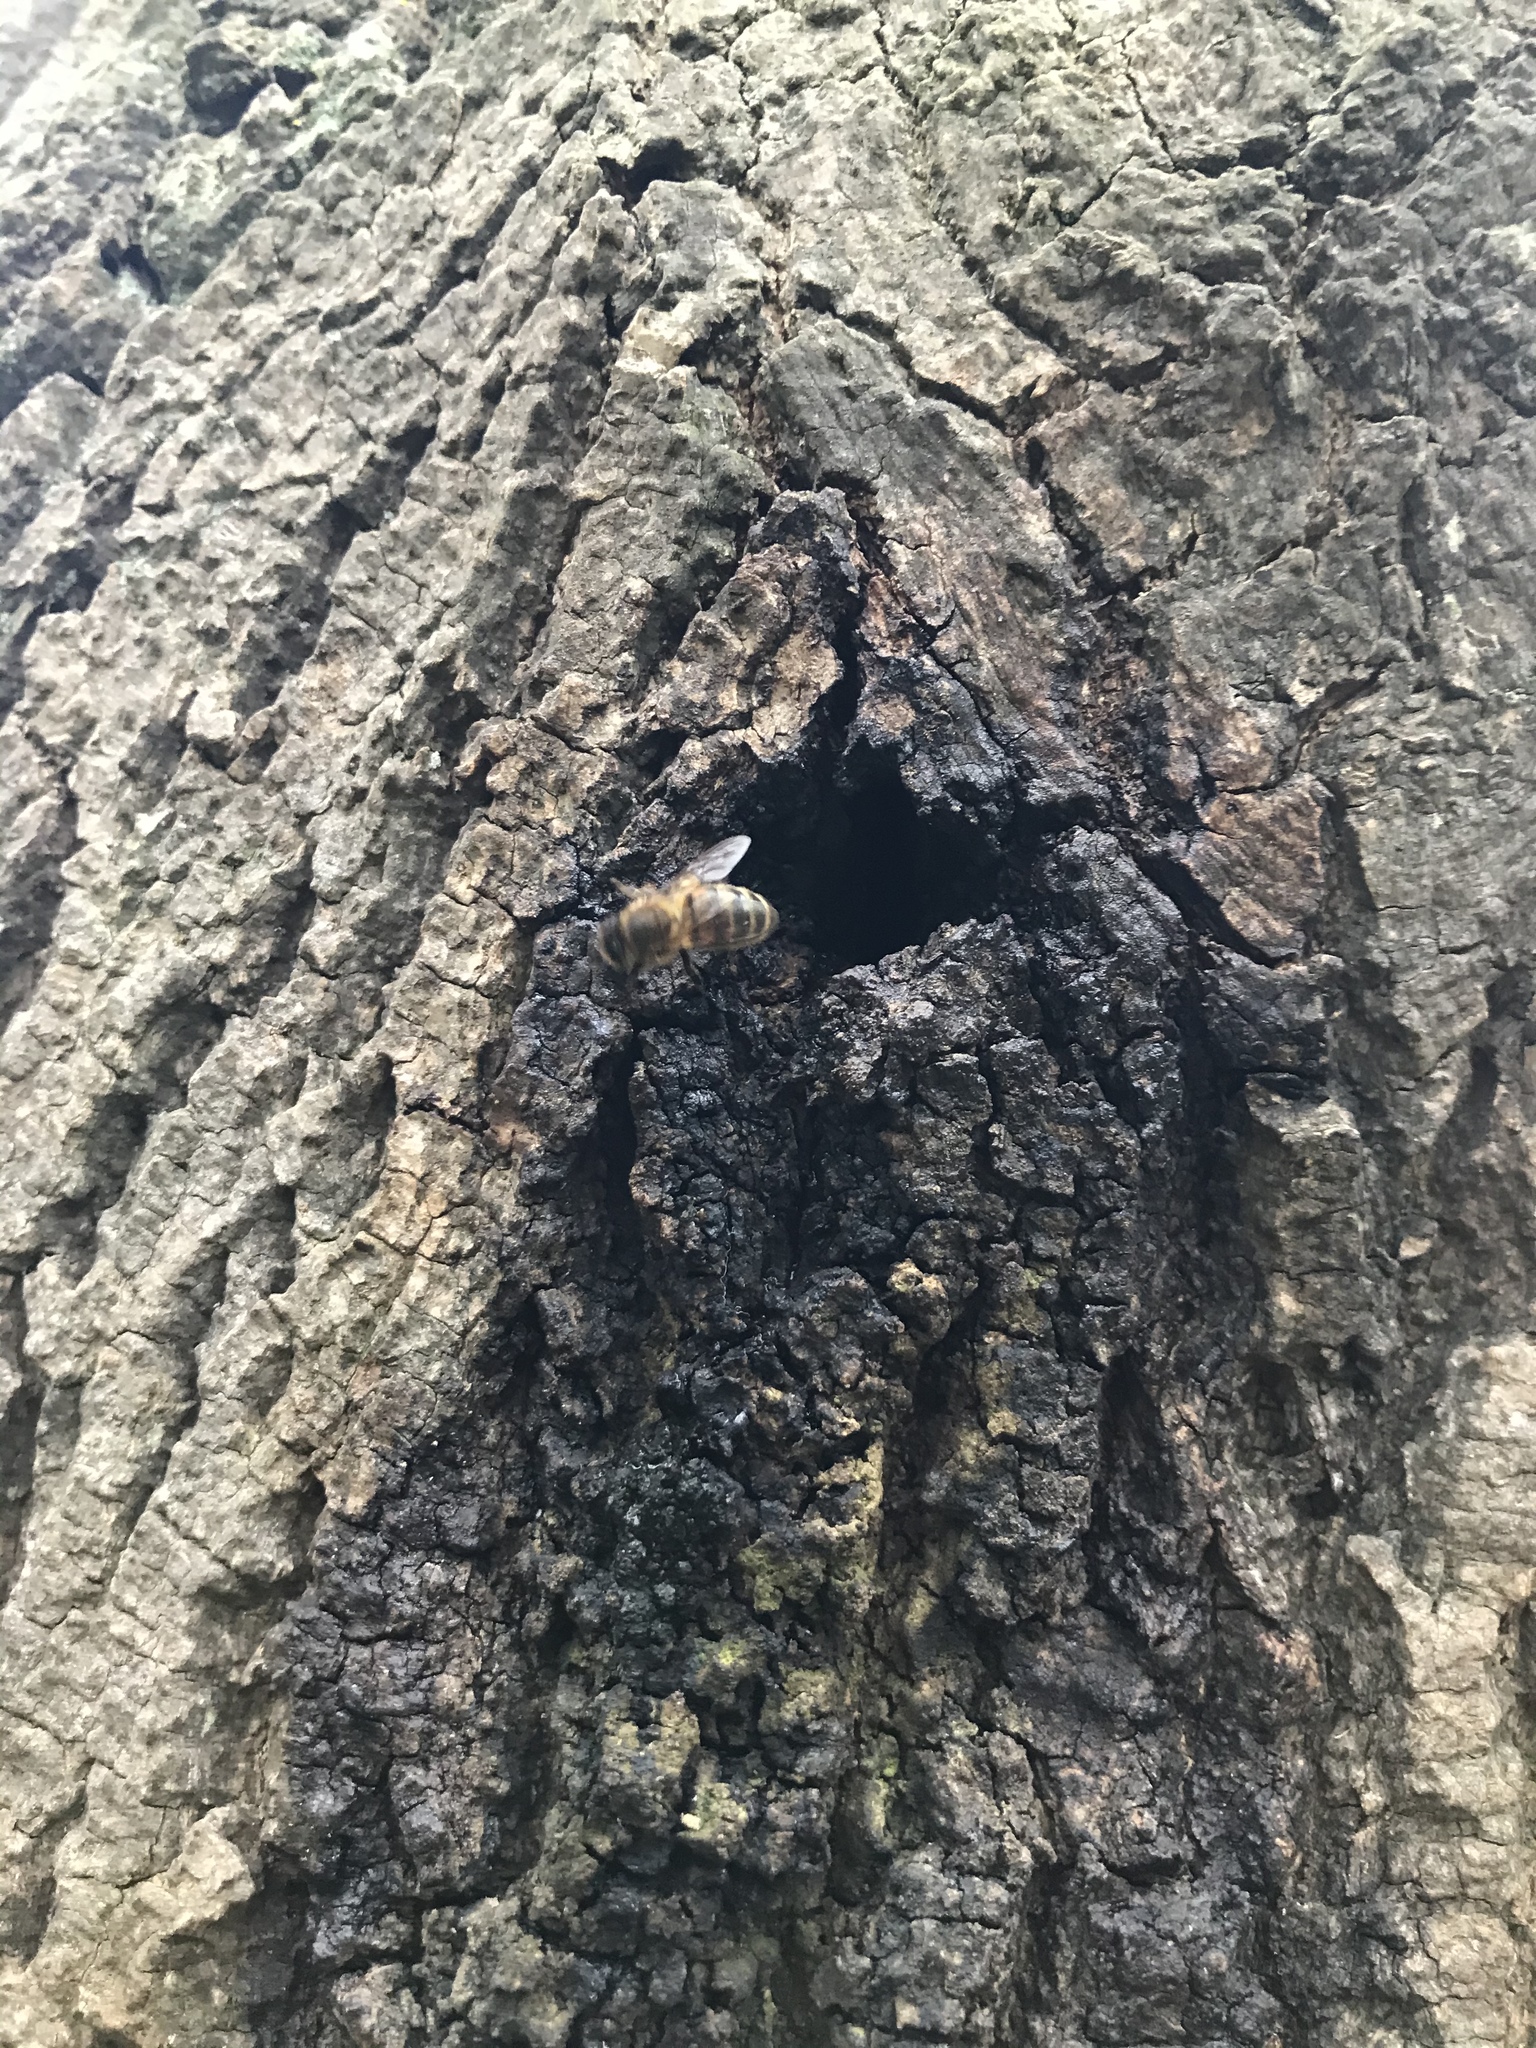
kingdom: Animalia
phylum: Arthropoda
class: Insecta
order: Hymenoptera
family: Apidae
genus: Apis
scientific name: Apis mellifera
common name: Honey bee
